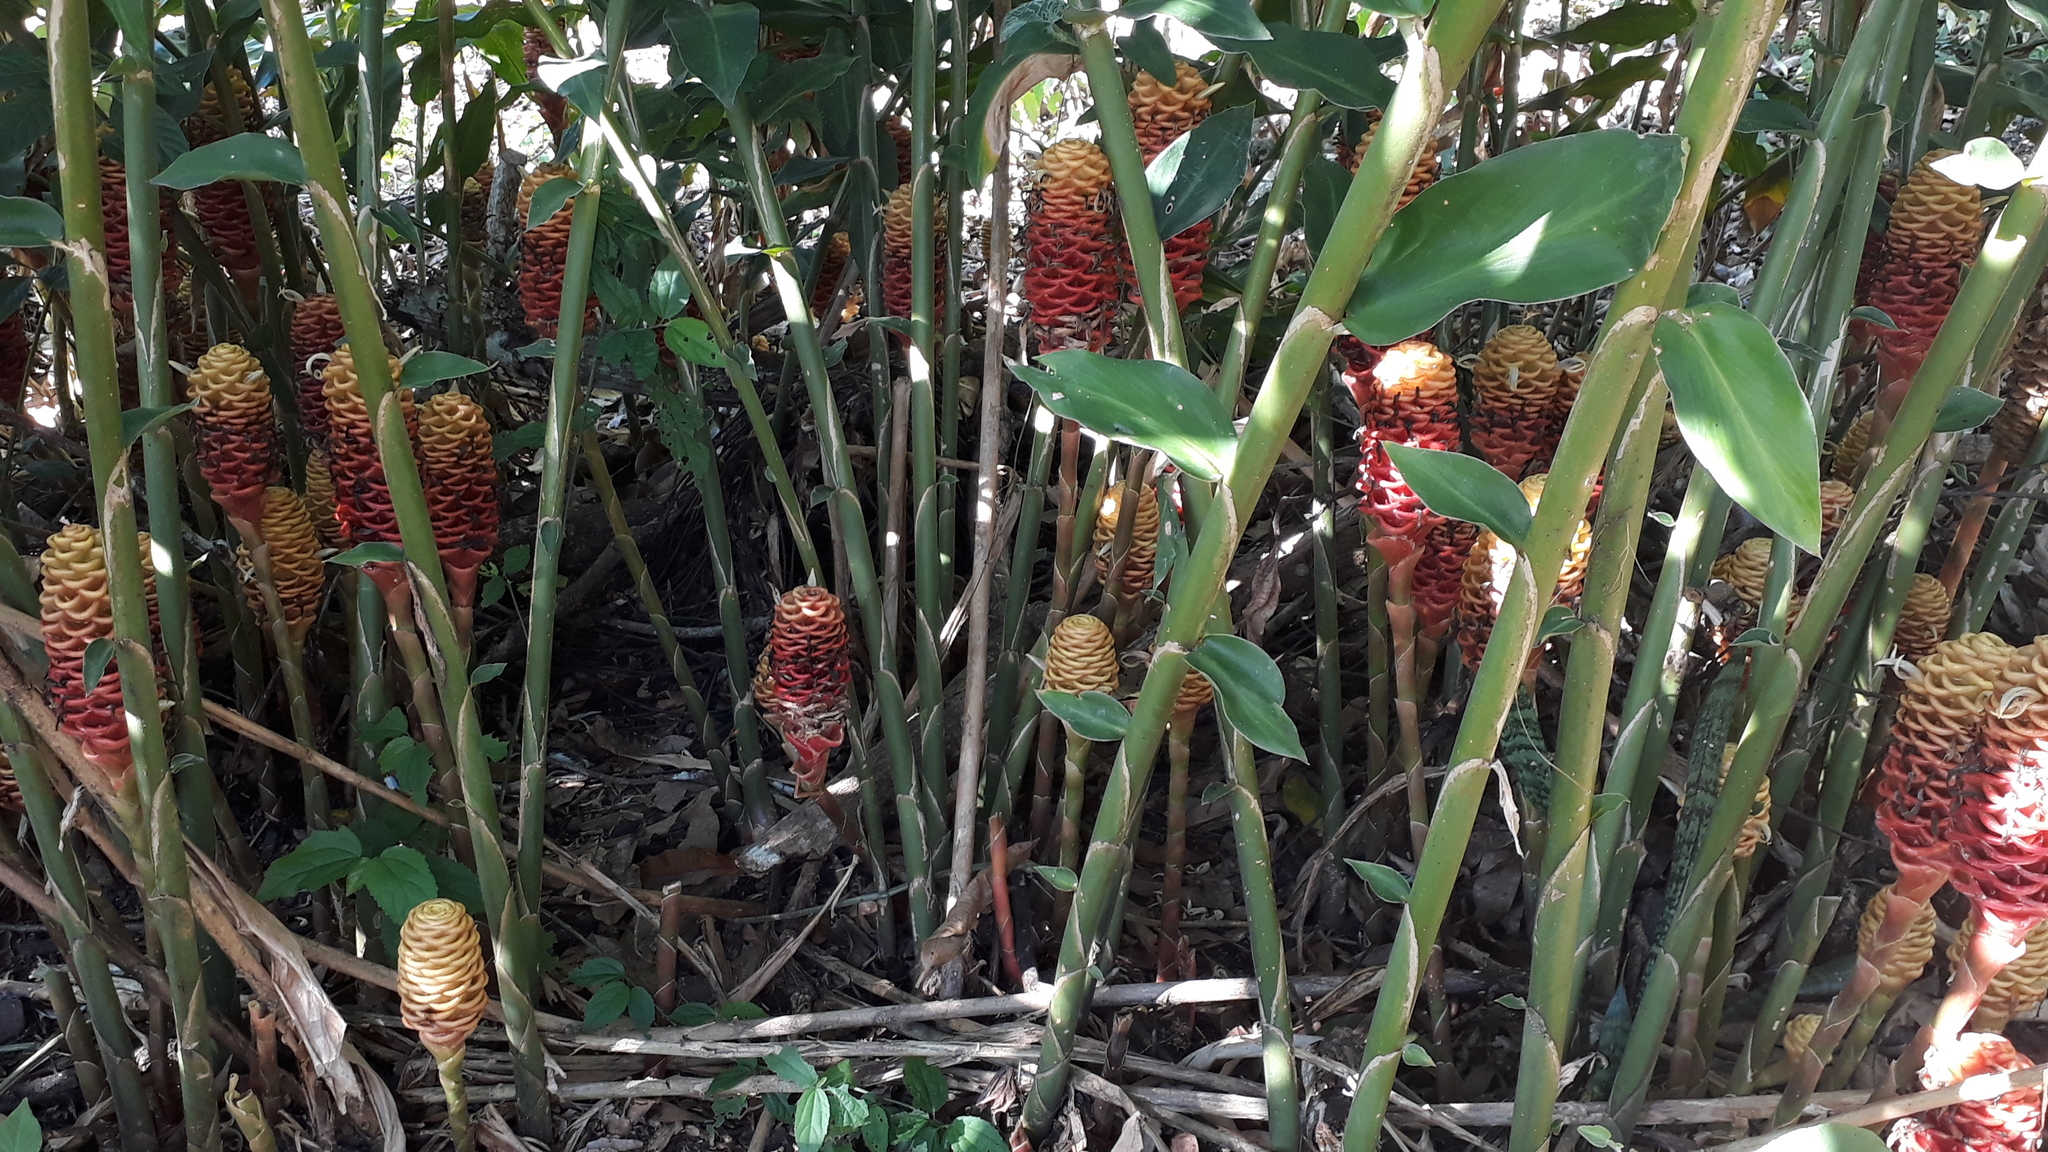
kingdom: Plantae
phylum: Tracheophyta
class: Liliopsida
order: Zingiberales
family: Zingiberaceae
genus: Zingiber
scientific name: Zingiber spectabile
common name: Beehive ginger
